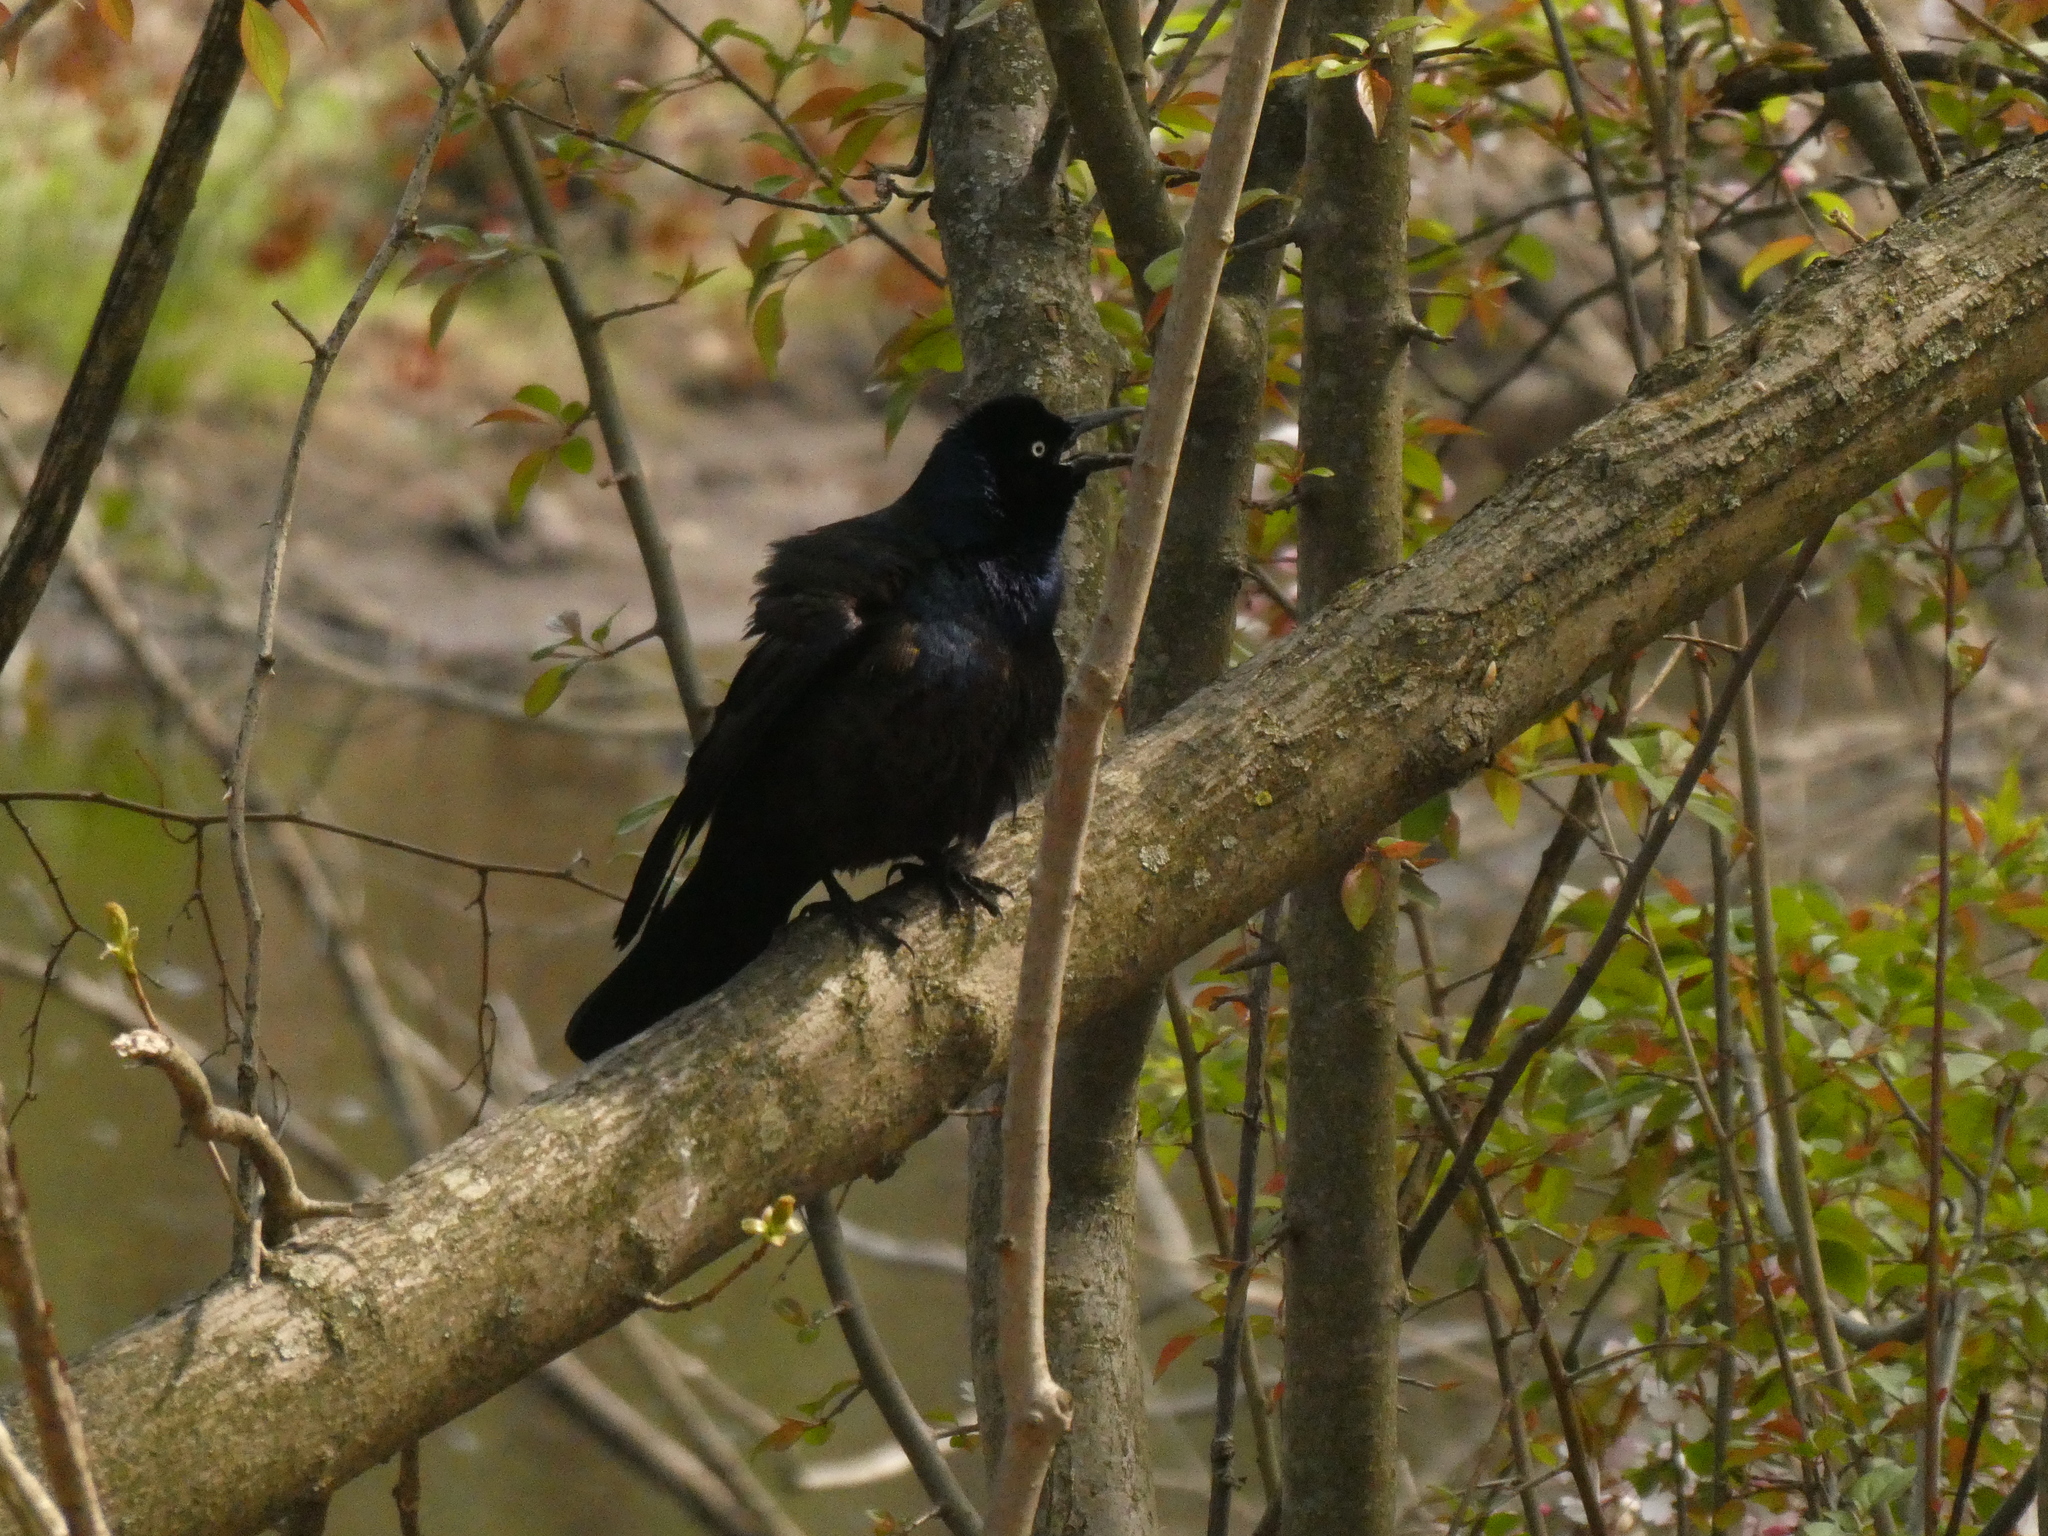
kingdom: Animalia
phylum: Chordata
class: Aves
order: Passeriformes
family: Icteridae
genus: Quiscalus
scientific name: Quiscalus quiscula
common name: Common grackle
